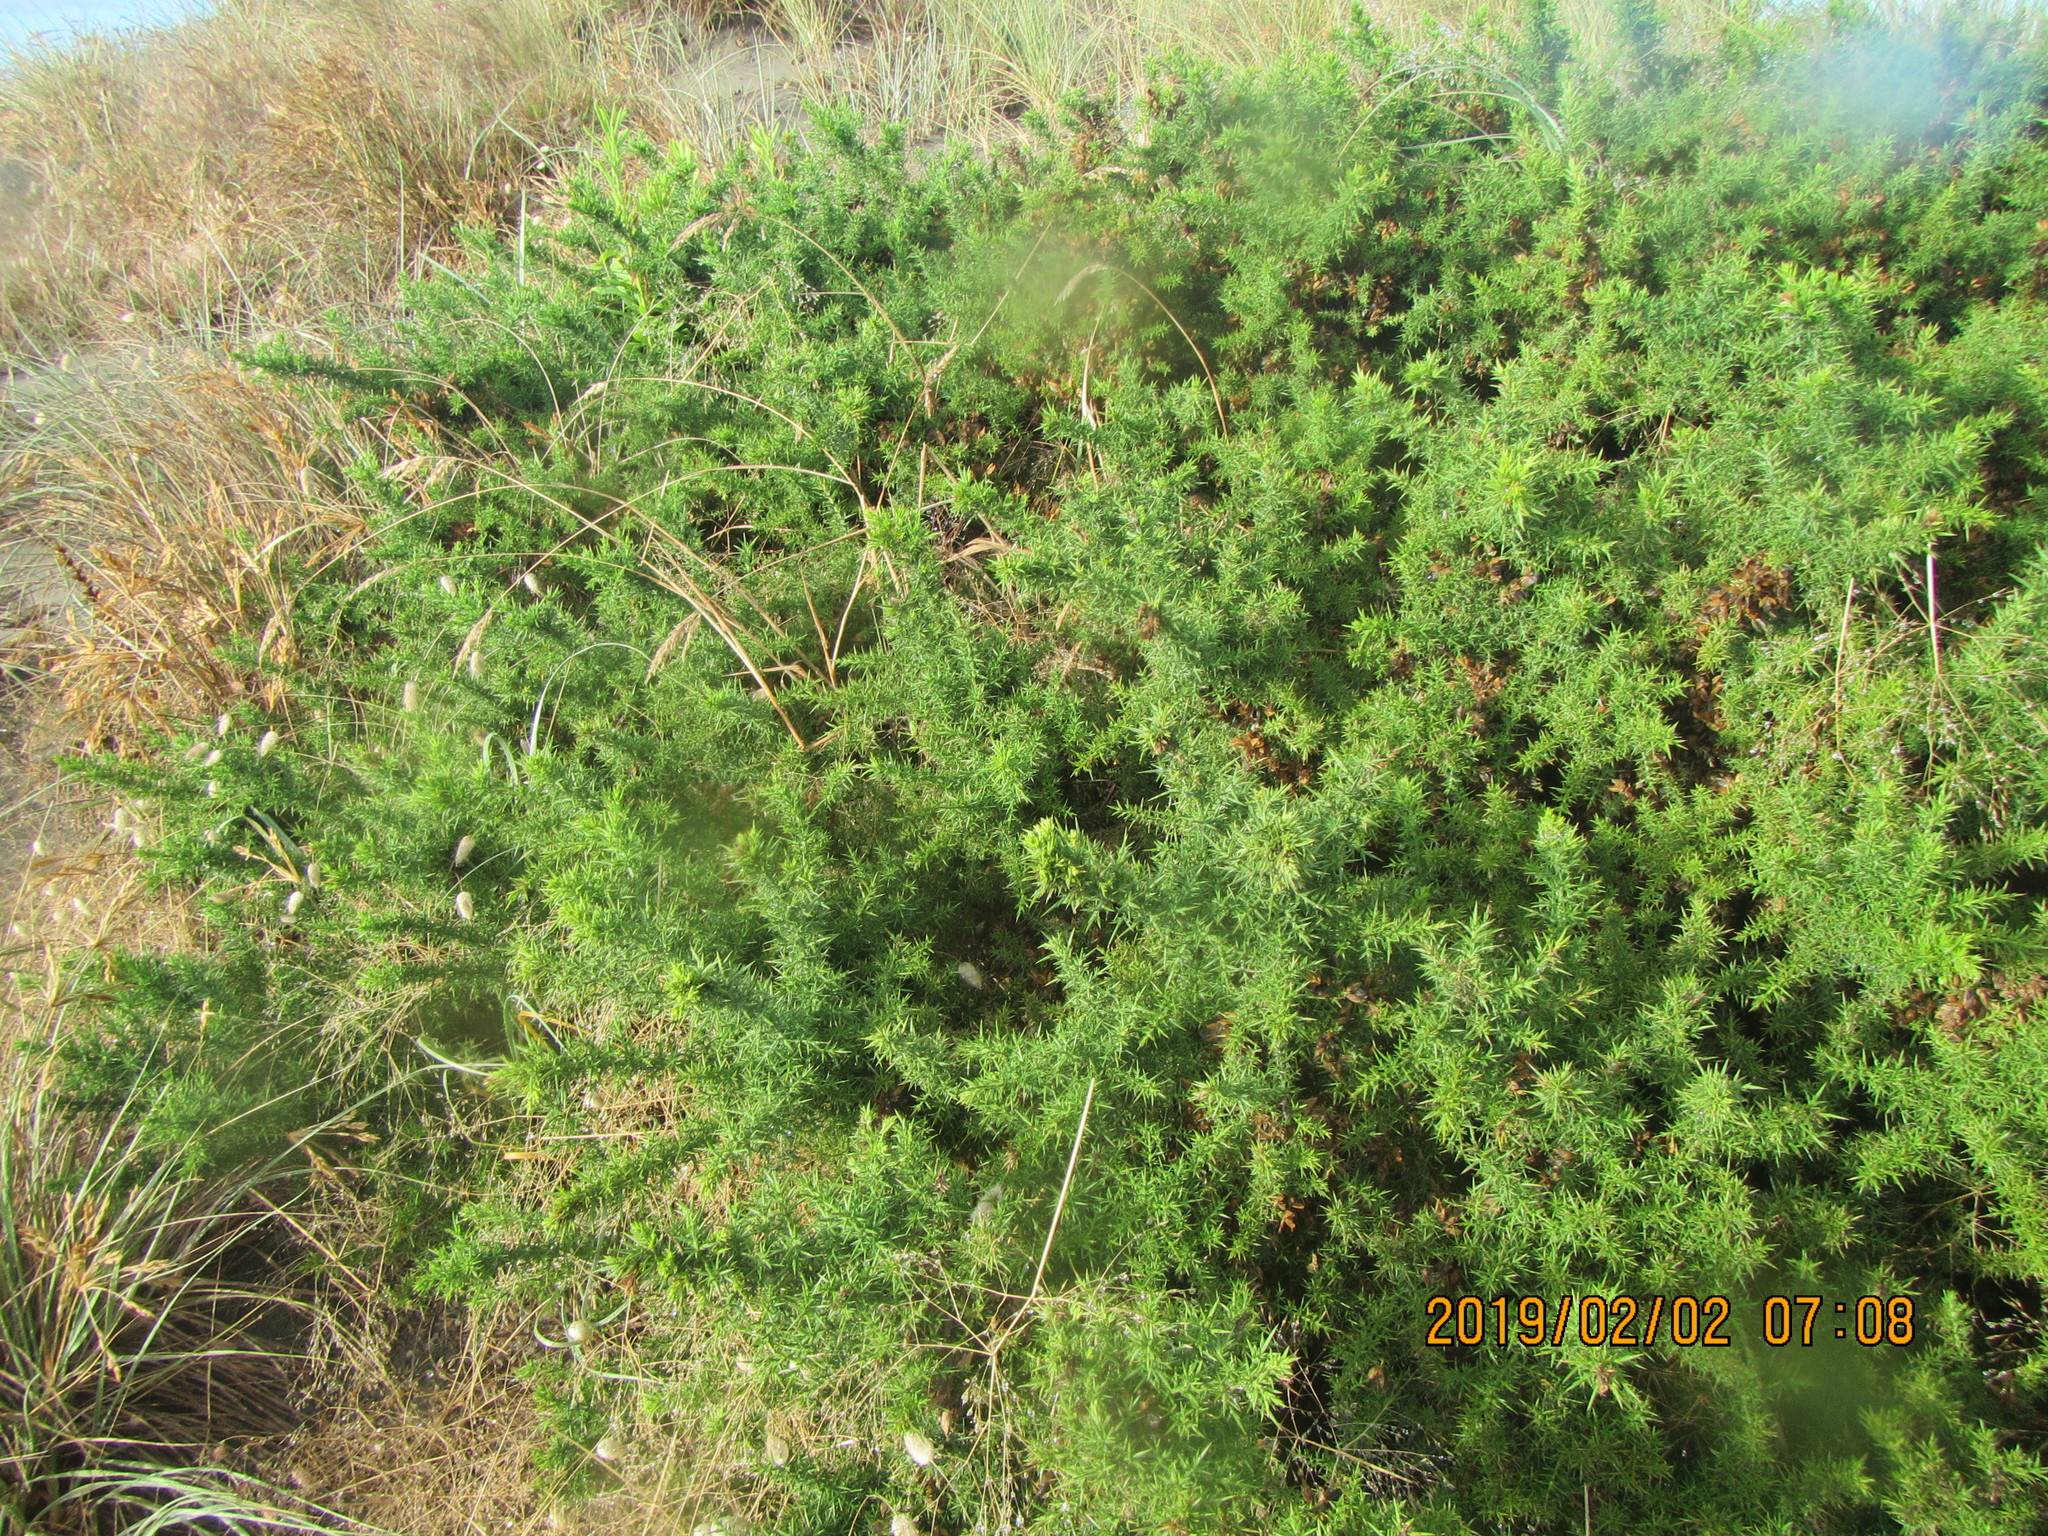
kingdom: Plantae
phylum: Tracheophyta
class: Magnoliopsida
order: Fabales
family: Fabaceae
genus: Ulex
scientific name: Ulex europaeus
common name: Common gorse
